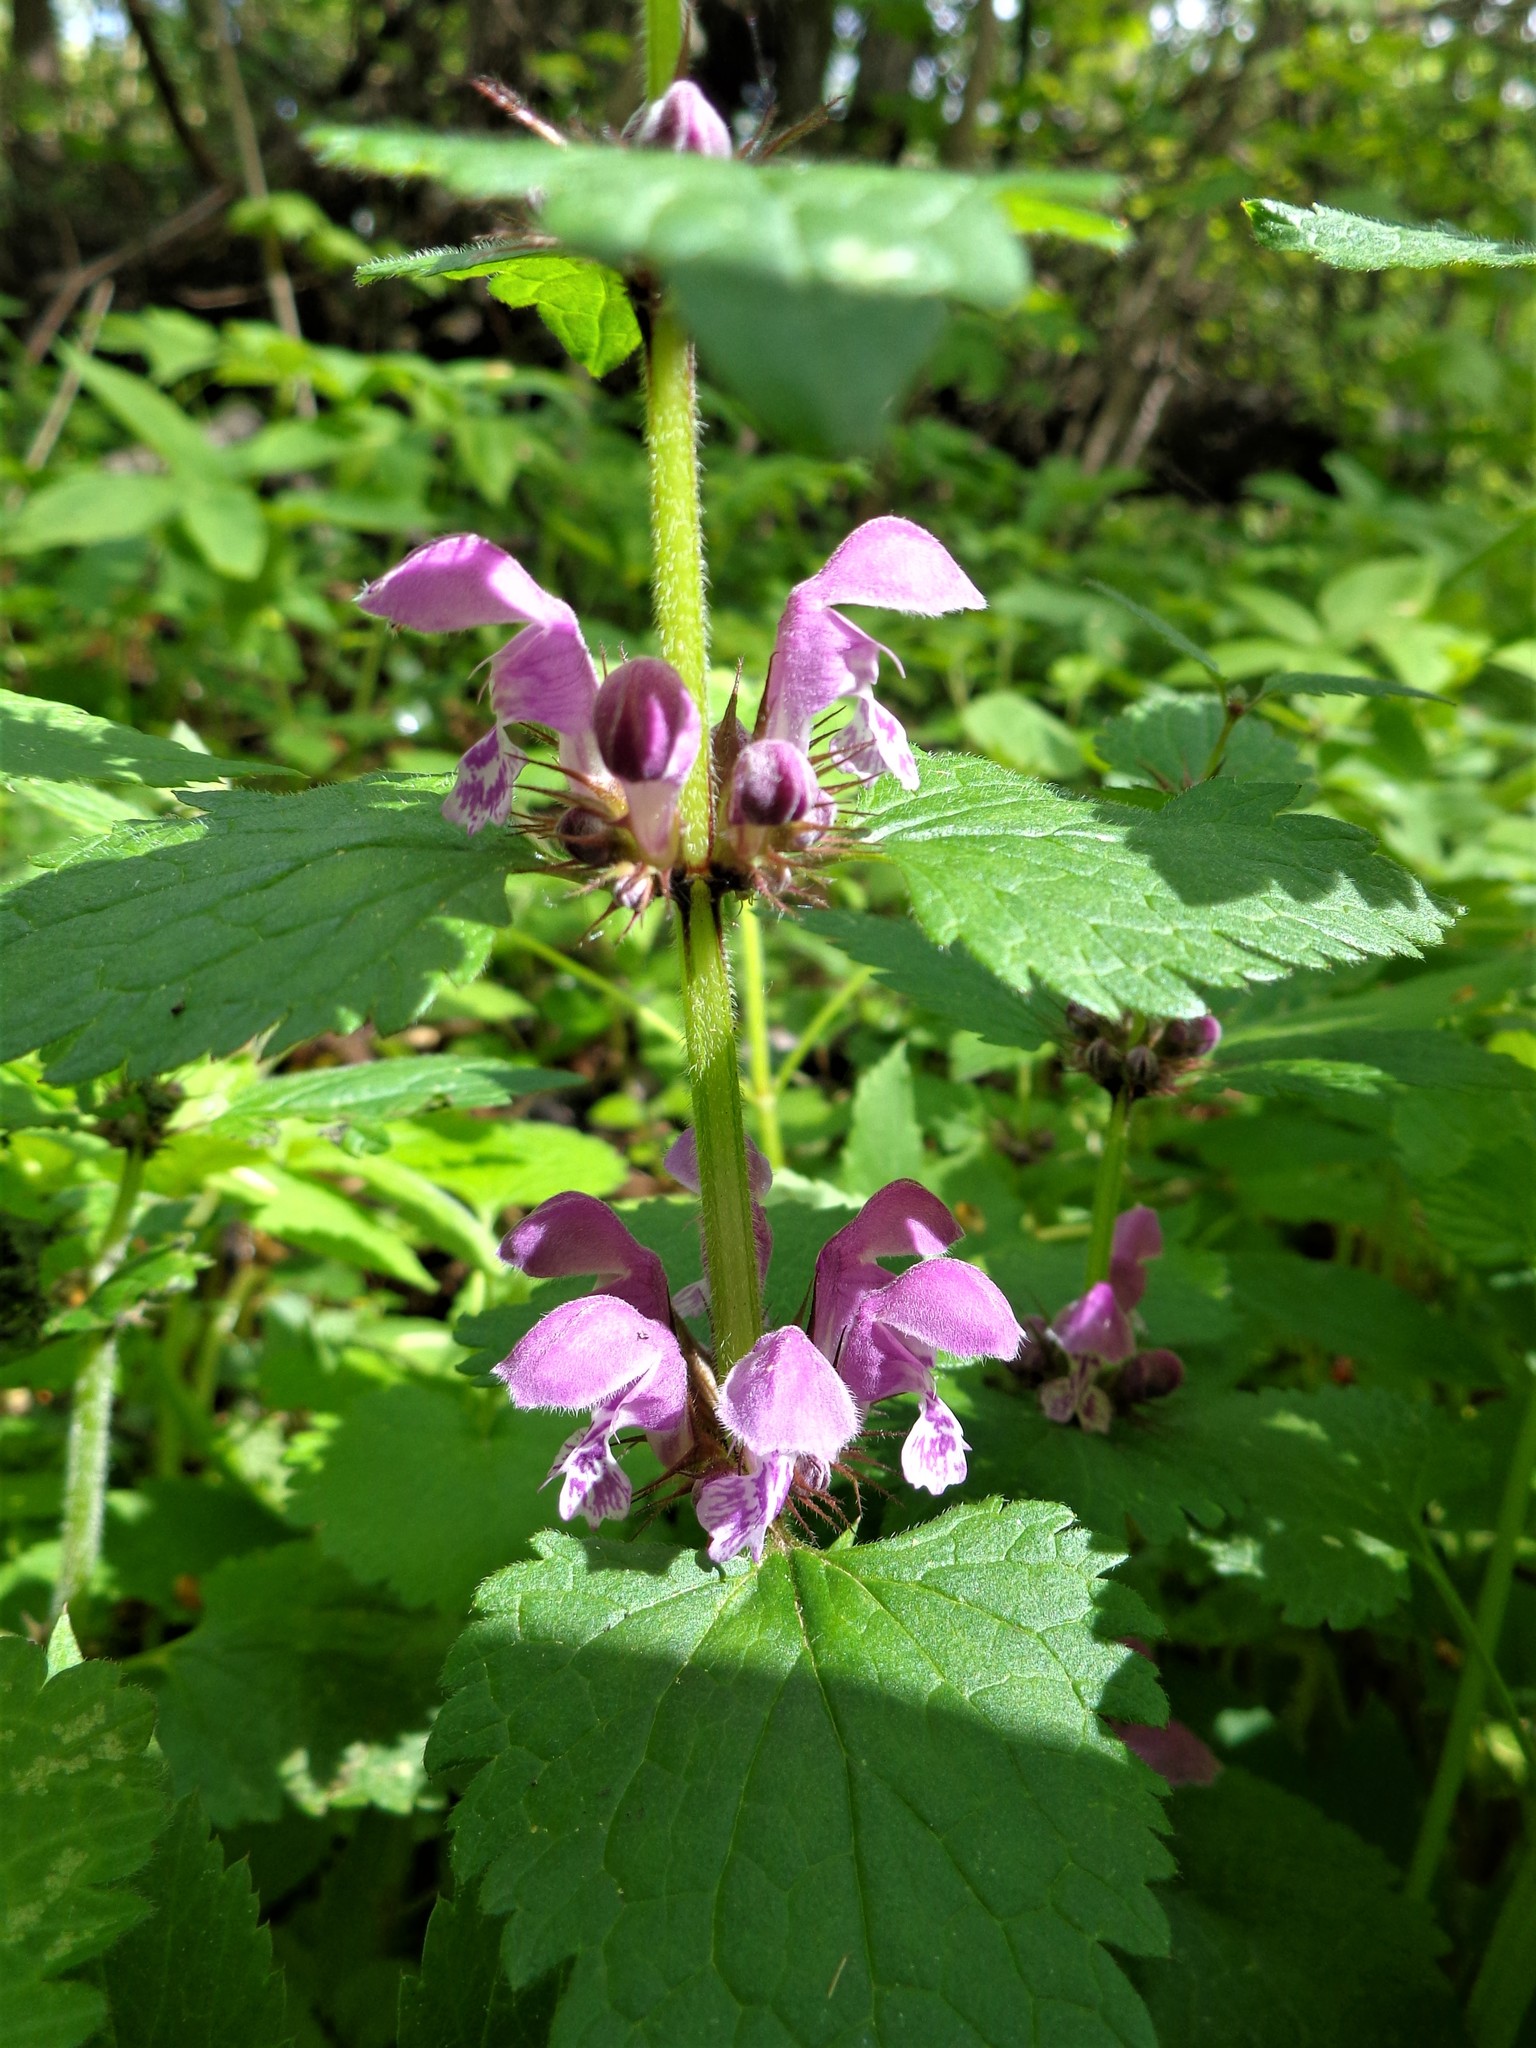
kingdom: Plantae
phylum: Tracheophyta
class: Magnoliopsida
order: Lamiales
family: Lamiaceae
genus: Lamium
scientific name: Lamium maculatum
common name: Spotted dead-nettle
